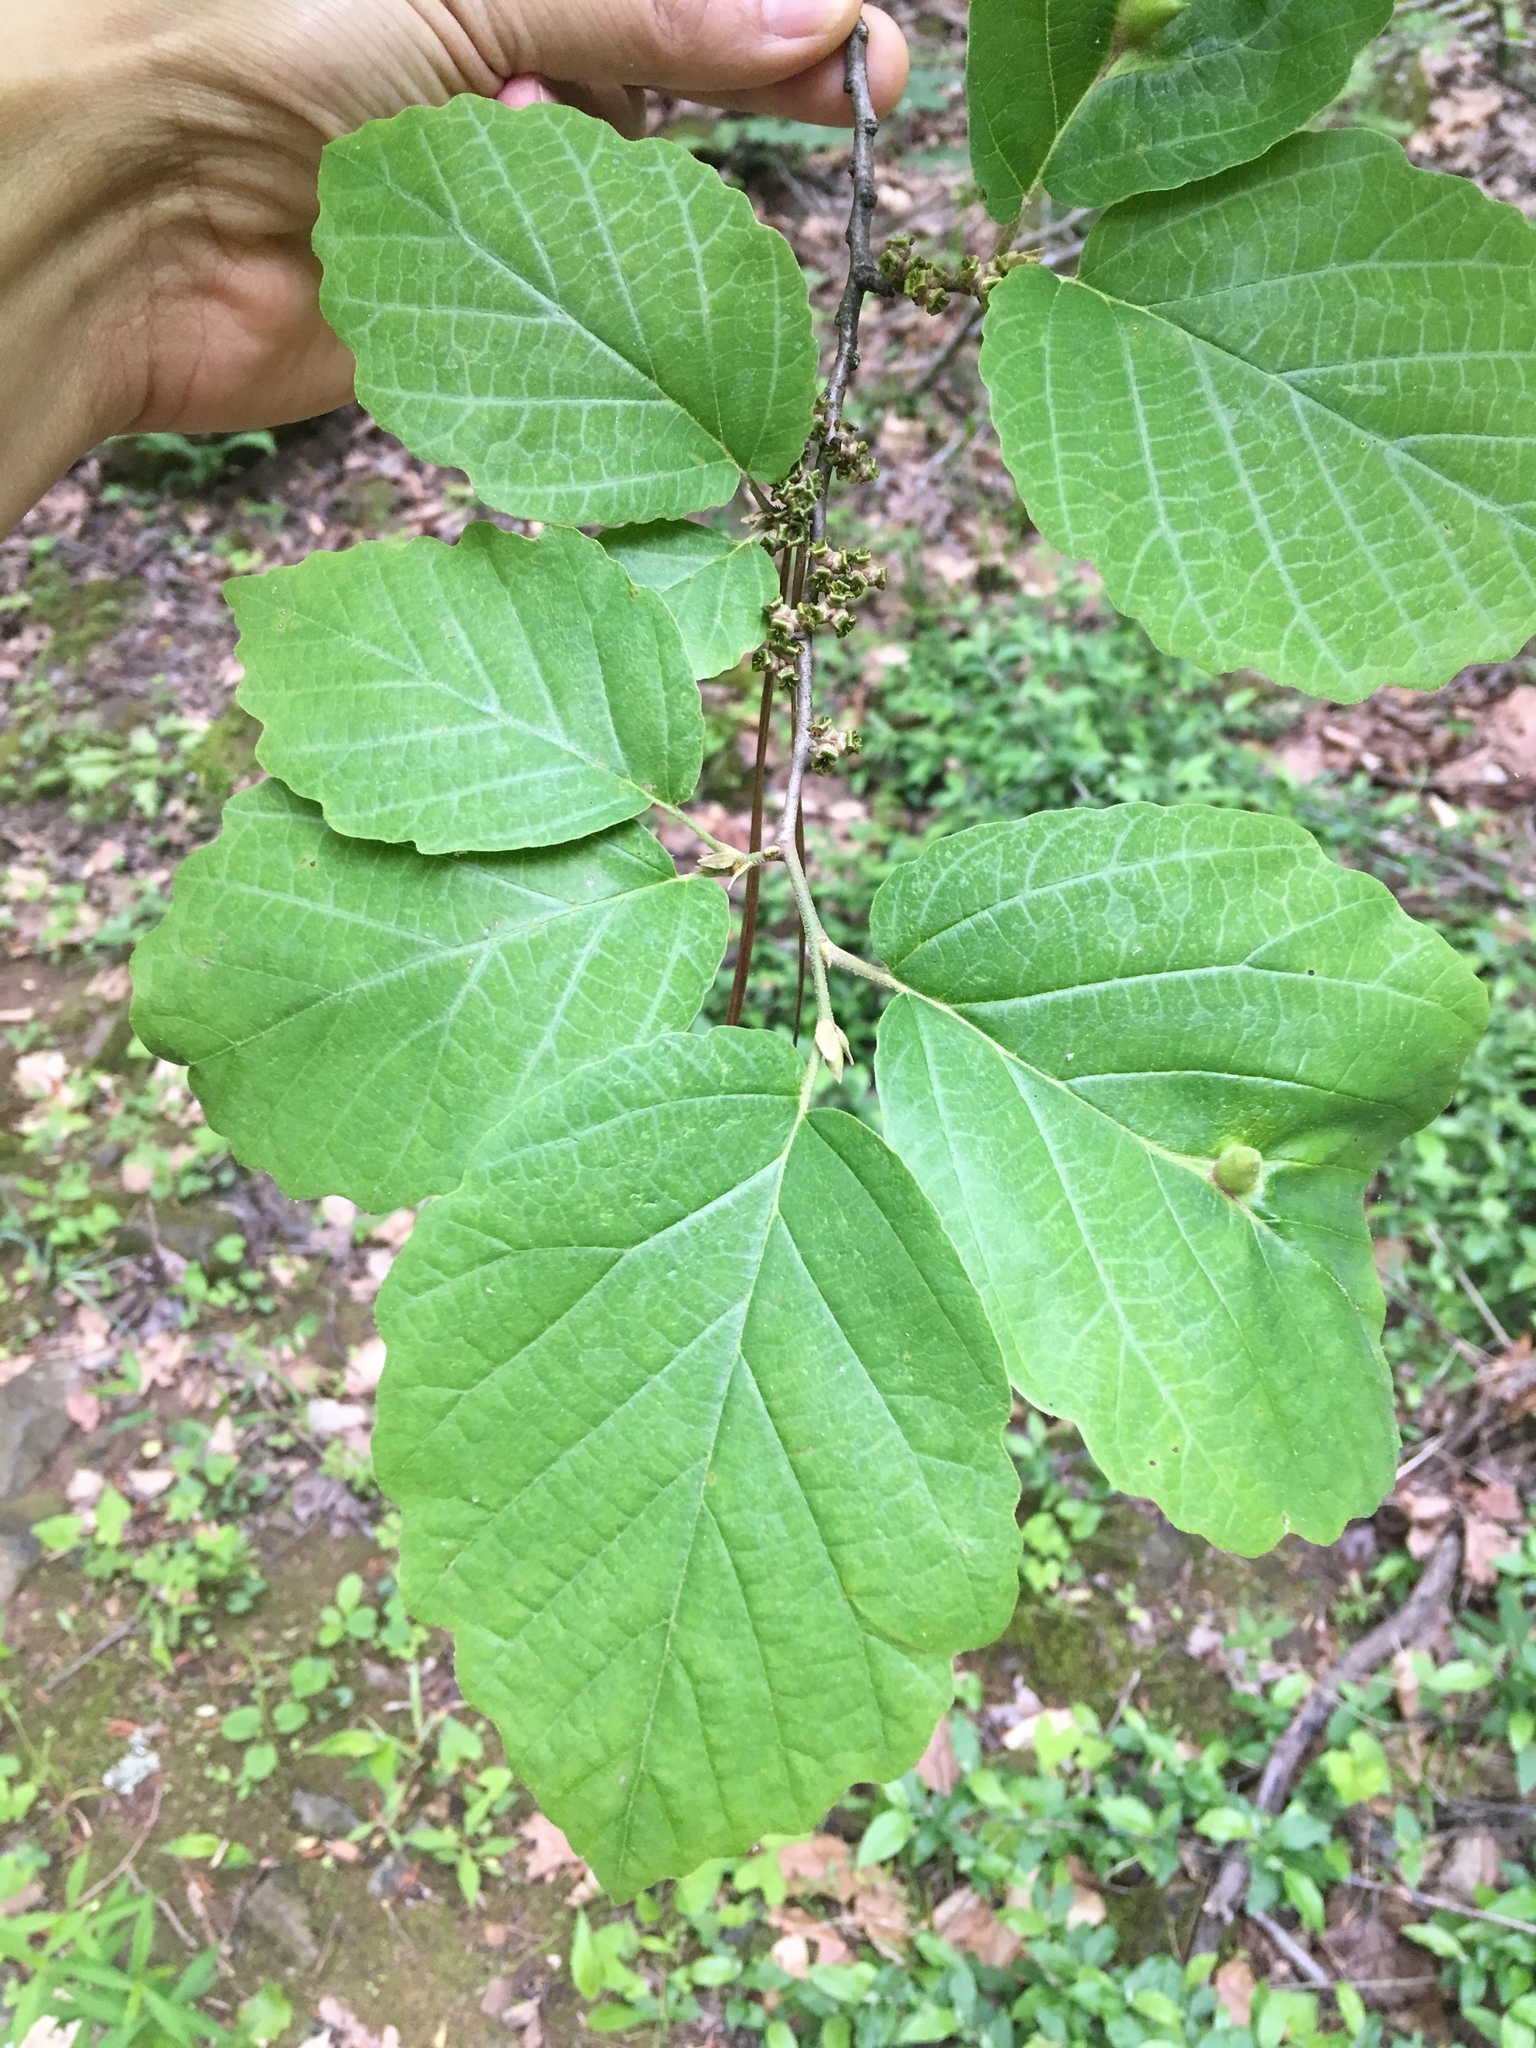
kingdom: Plantae
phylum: Tracheophyta
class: Magnoliopsida
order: Saxifragales
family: Hamamelidaceae
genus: Hamamelis
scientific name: Hamamelis virginiana
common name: Witch-hazel
